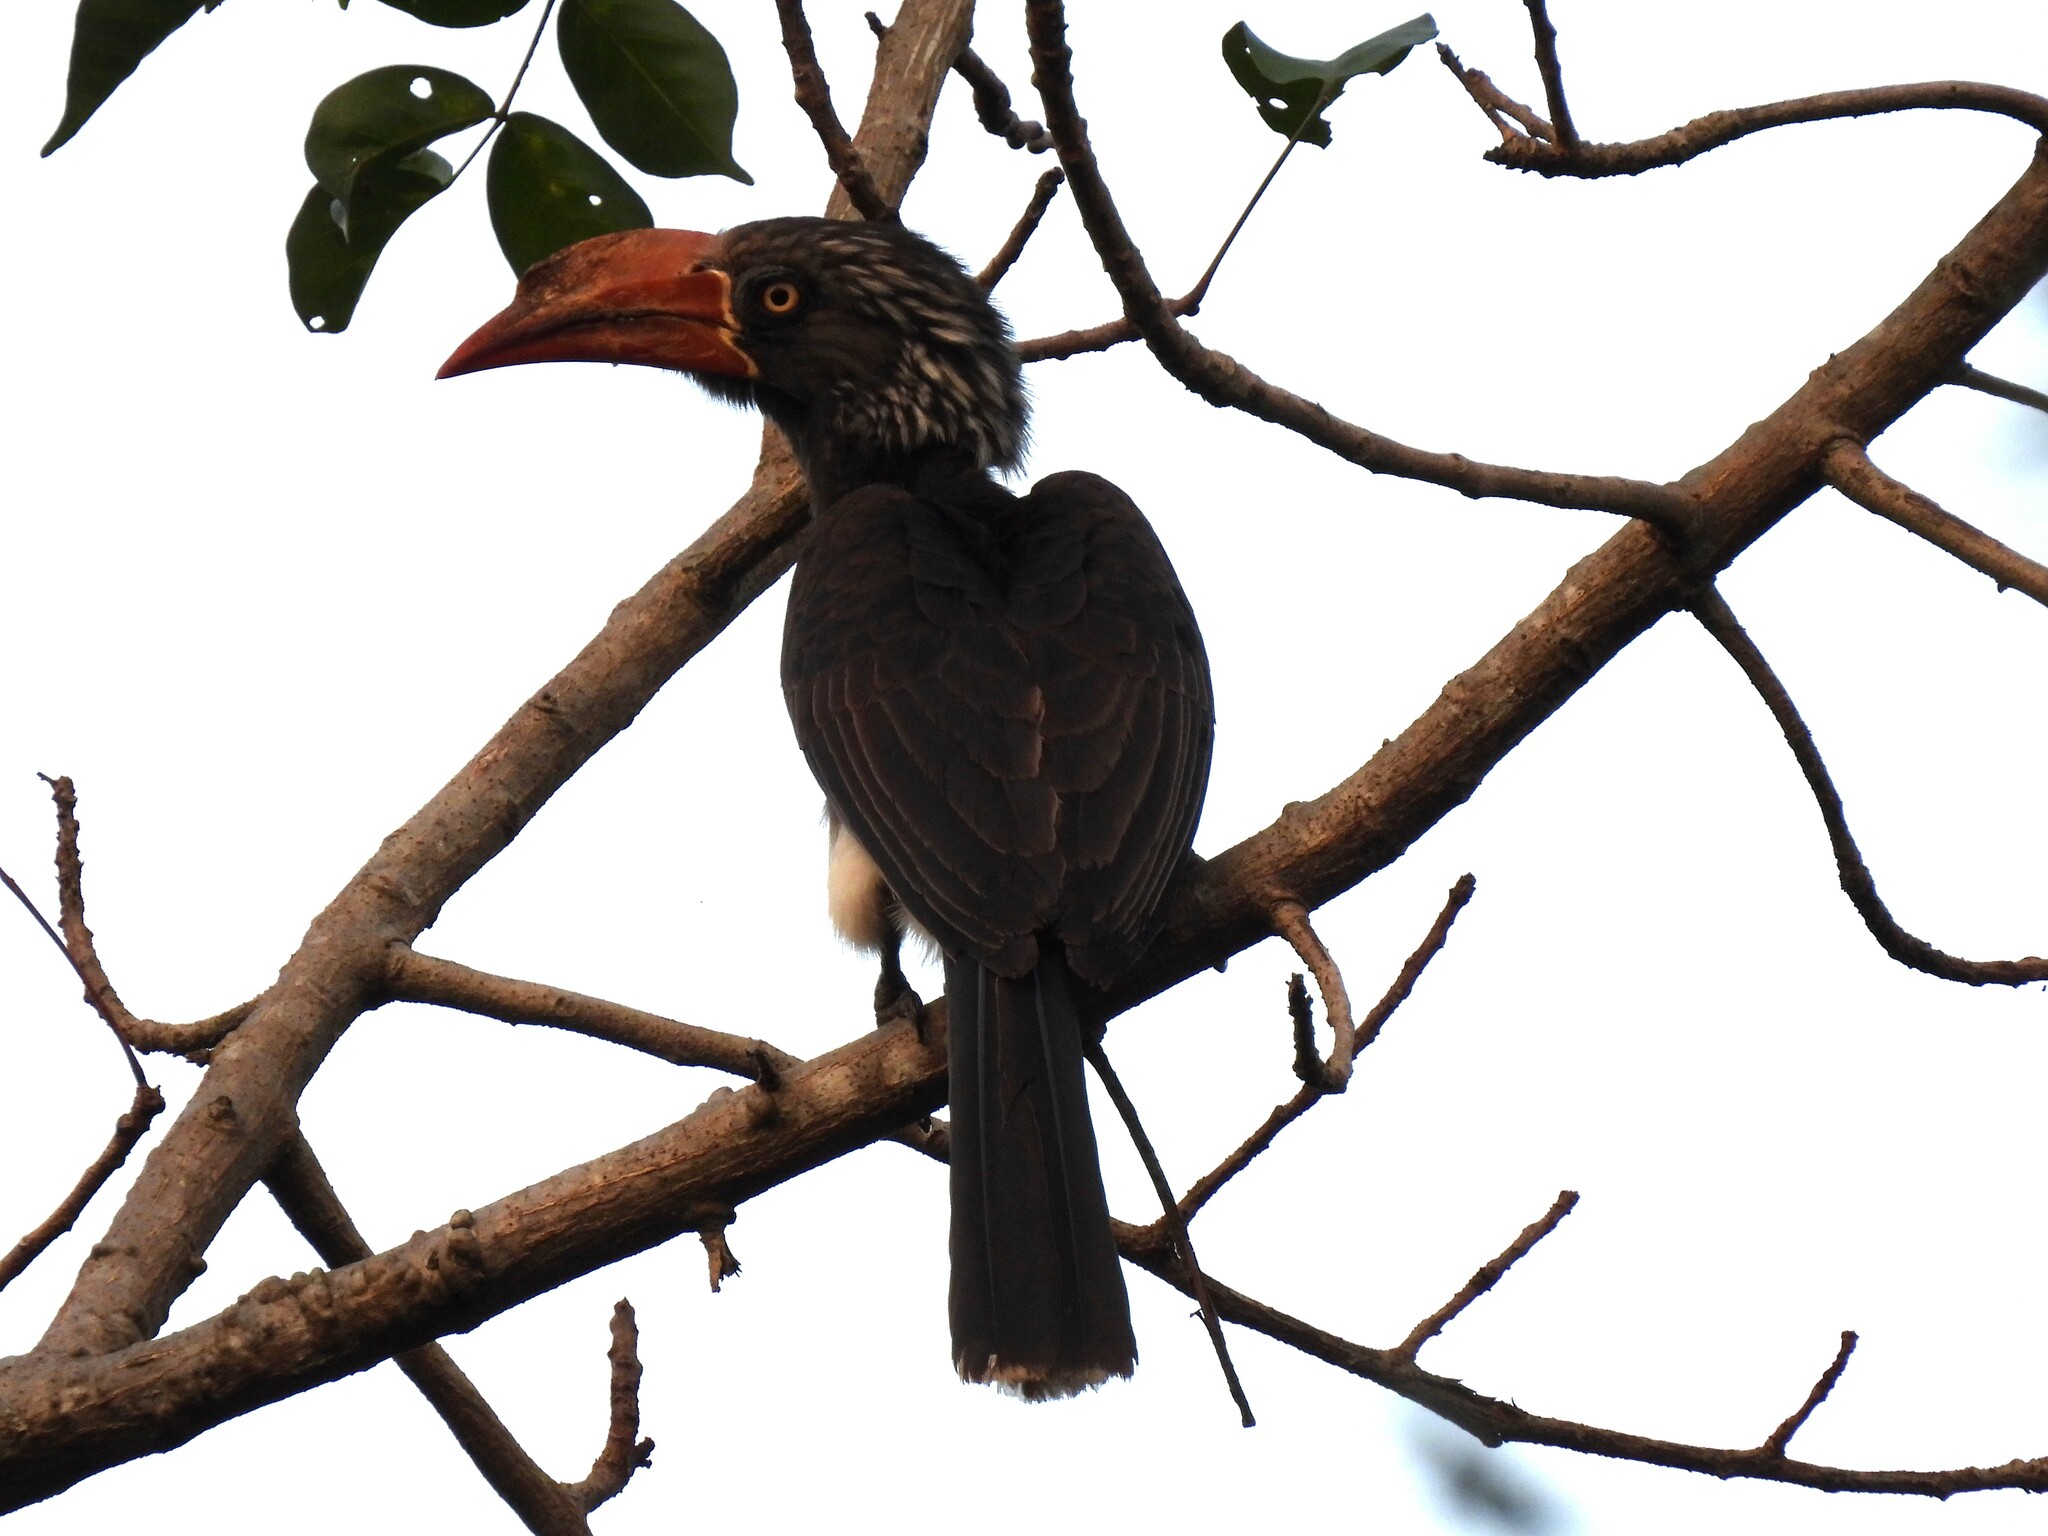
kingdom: Animalia
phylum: Chordata
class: Aves
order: Bucerotiformes
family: Bucerotidae
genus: Lophoceros
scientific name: Lophoceros alboterminatus
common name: Crowned hornbill
